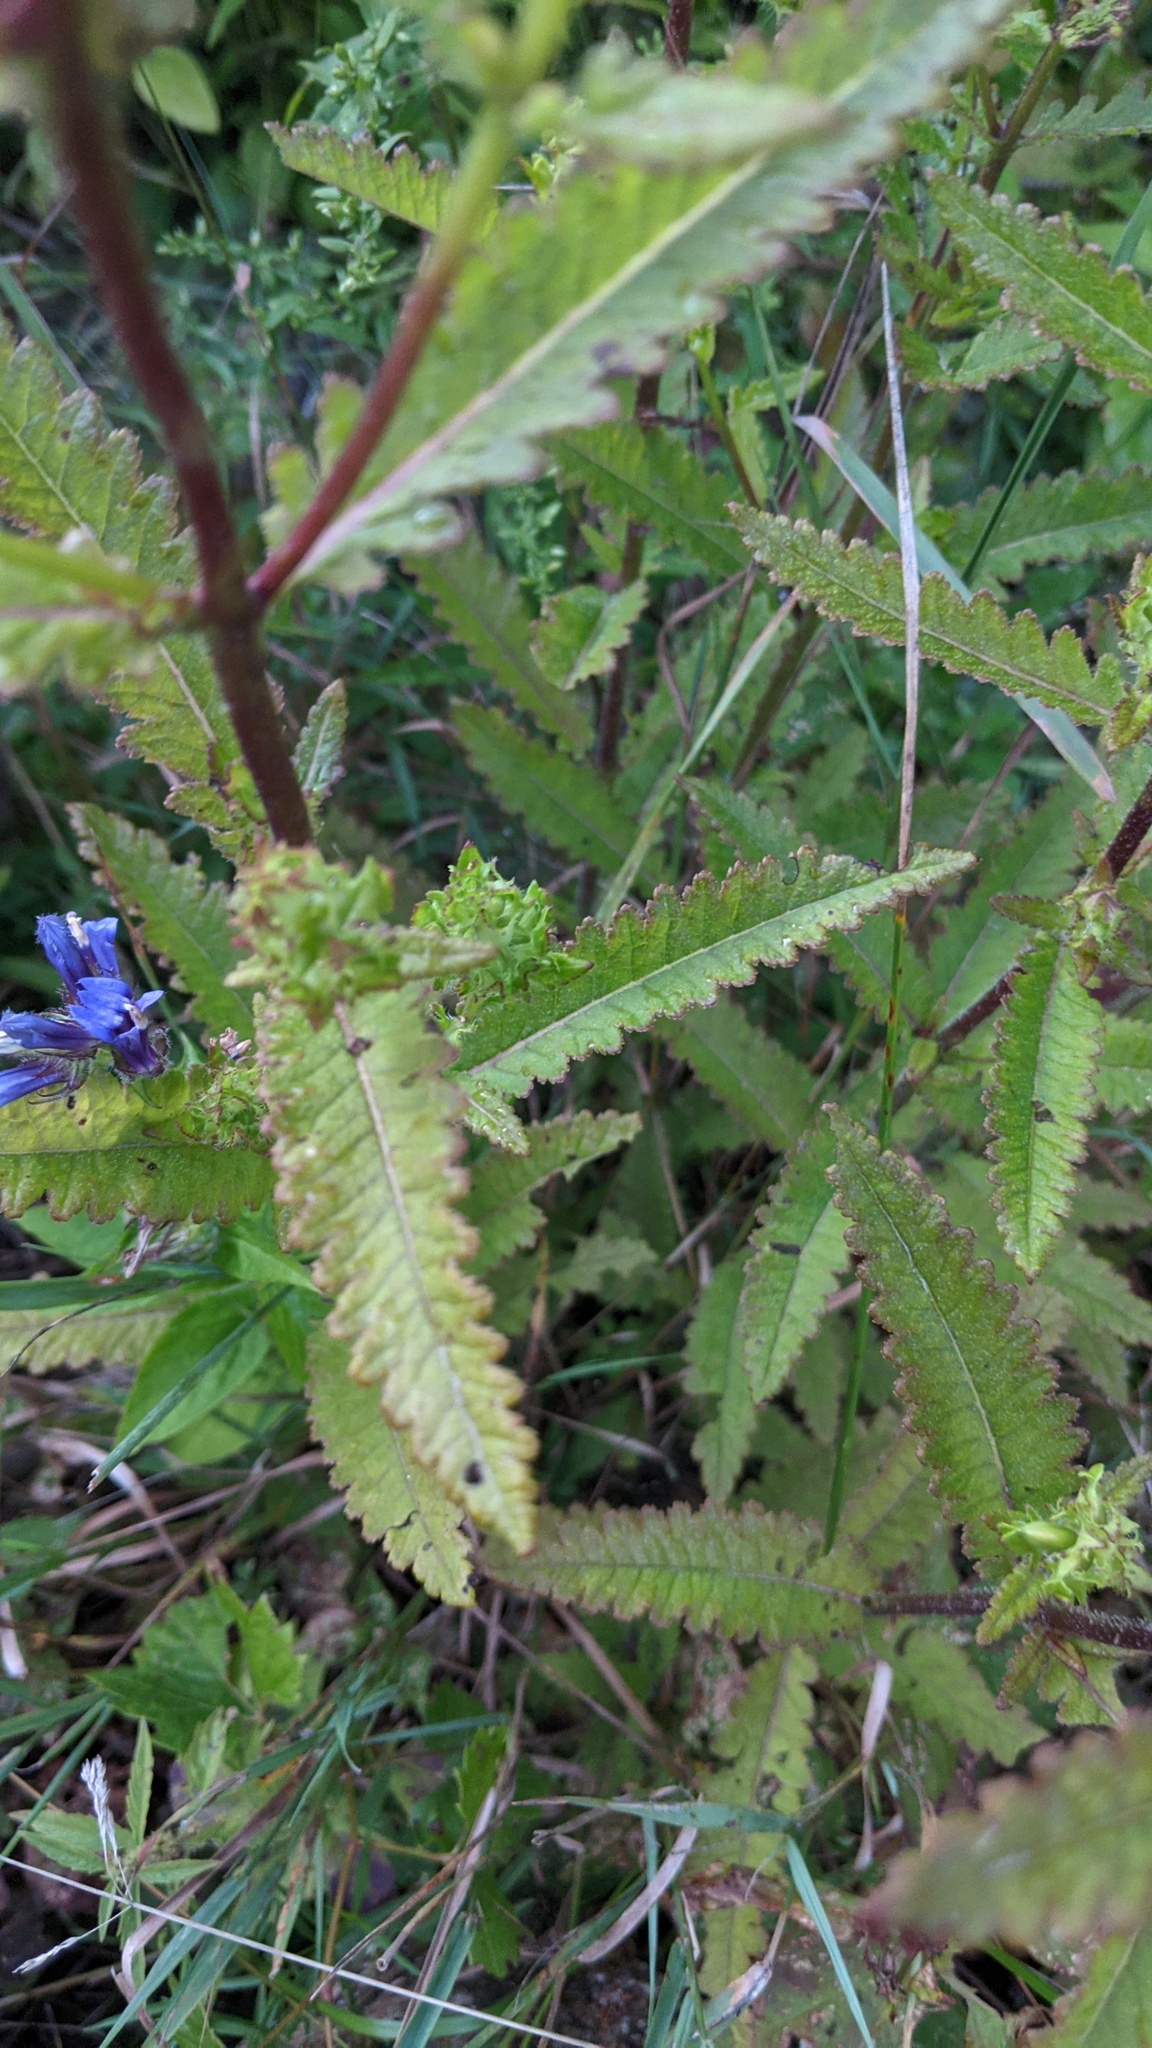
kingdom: Plantae
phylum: Tracheophyta
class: Magnoliopsida
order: Lamiales
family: Orobanchaceae
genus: Pedicularis
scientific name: Pedicularis lanceolata
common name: Swamp lousewort
